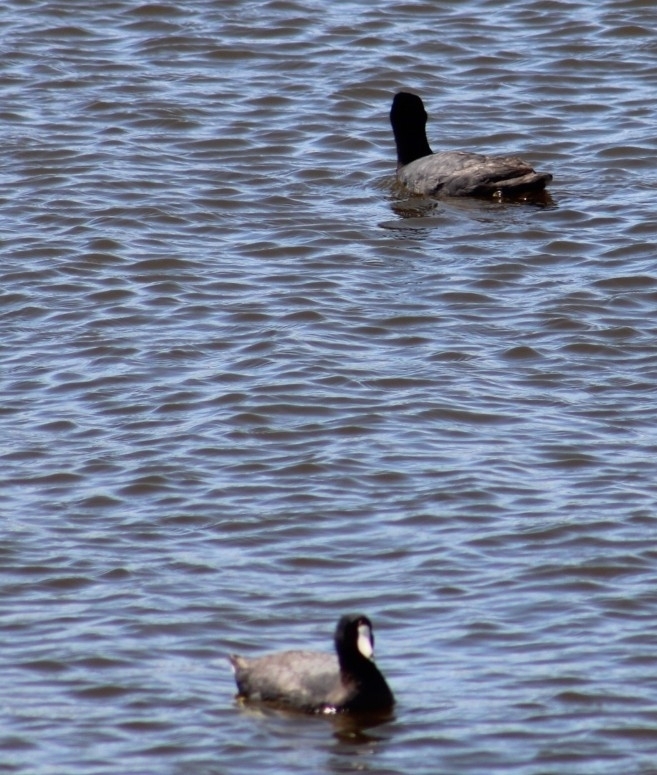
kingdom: Animalia
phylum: Chordata
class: Aves
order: Gruiformes
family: Rallidae
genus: Fulica
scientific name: Fulica americana
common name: American coot
